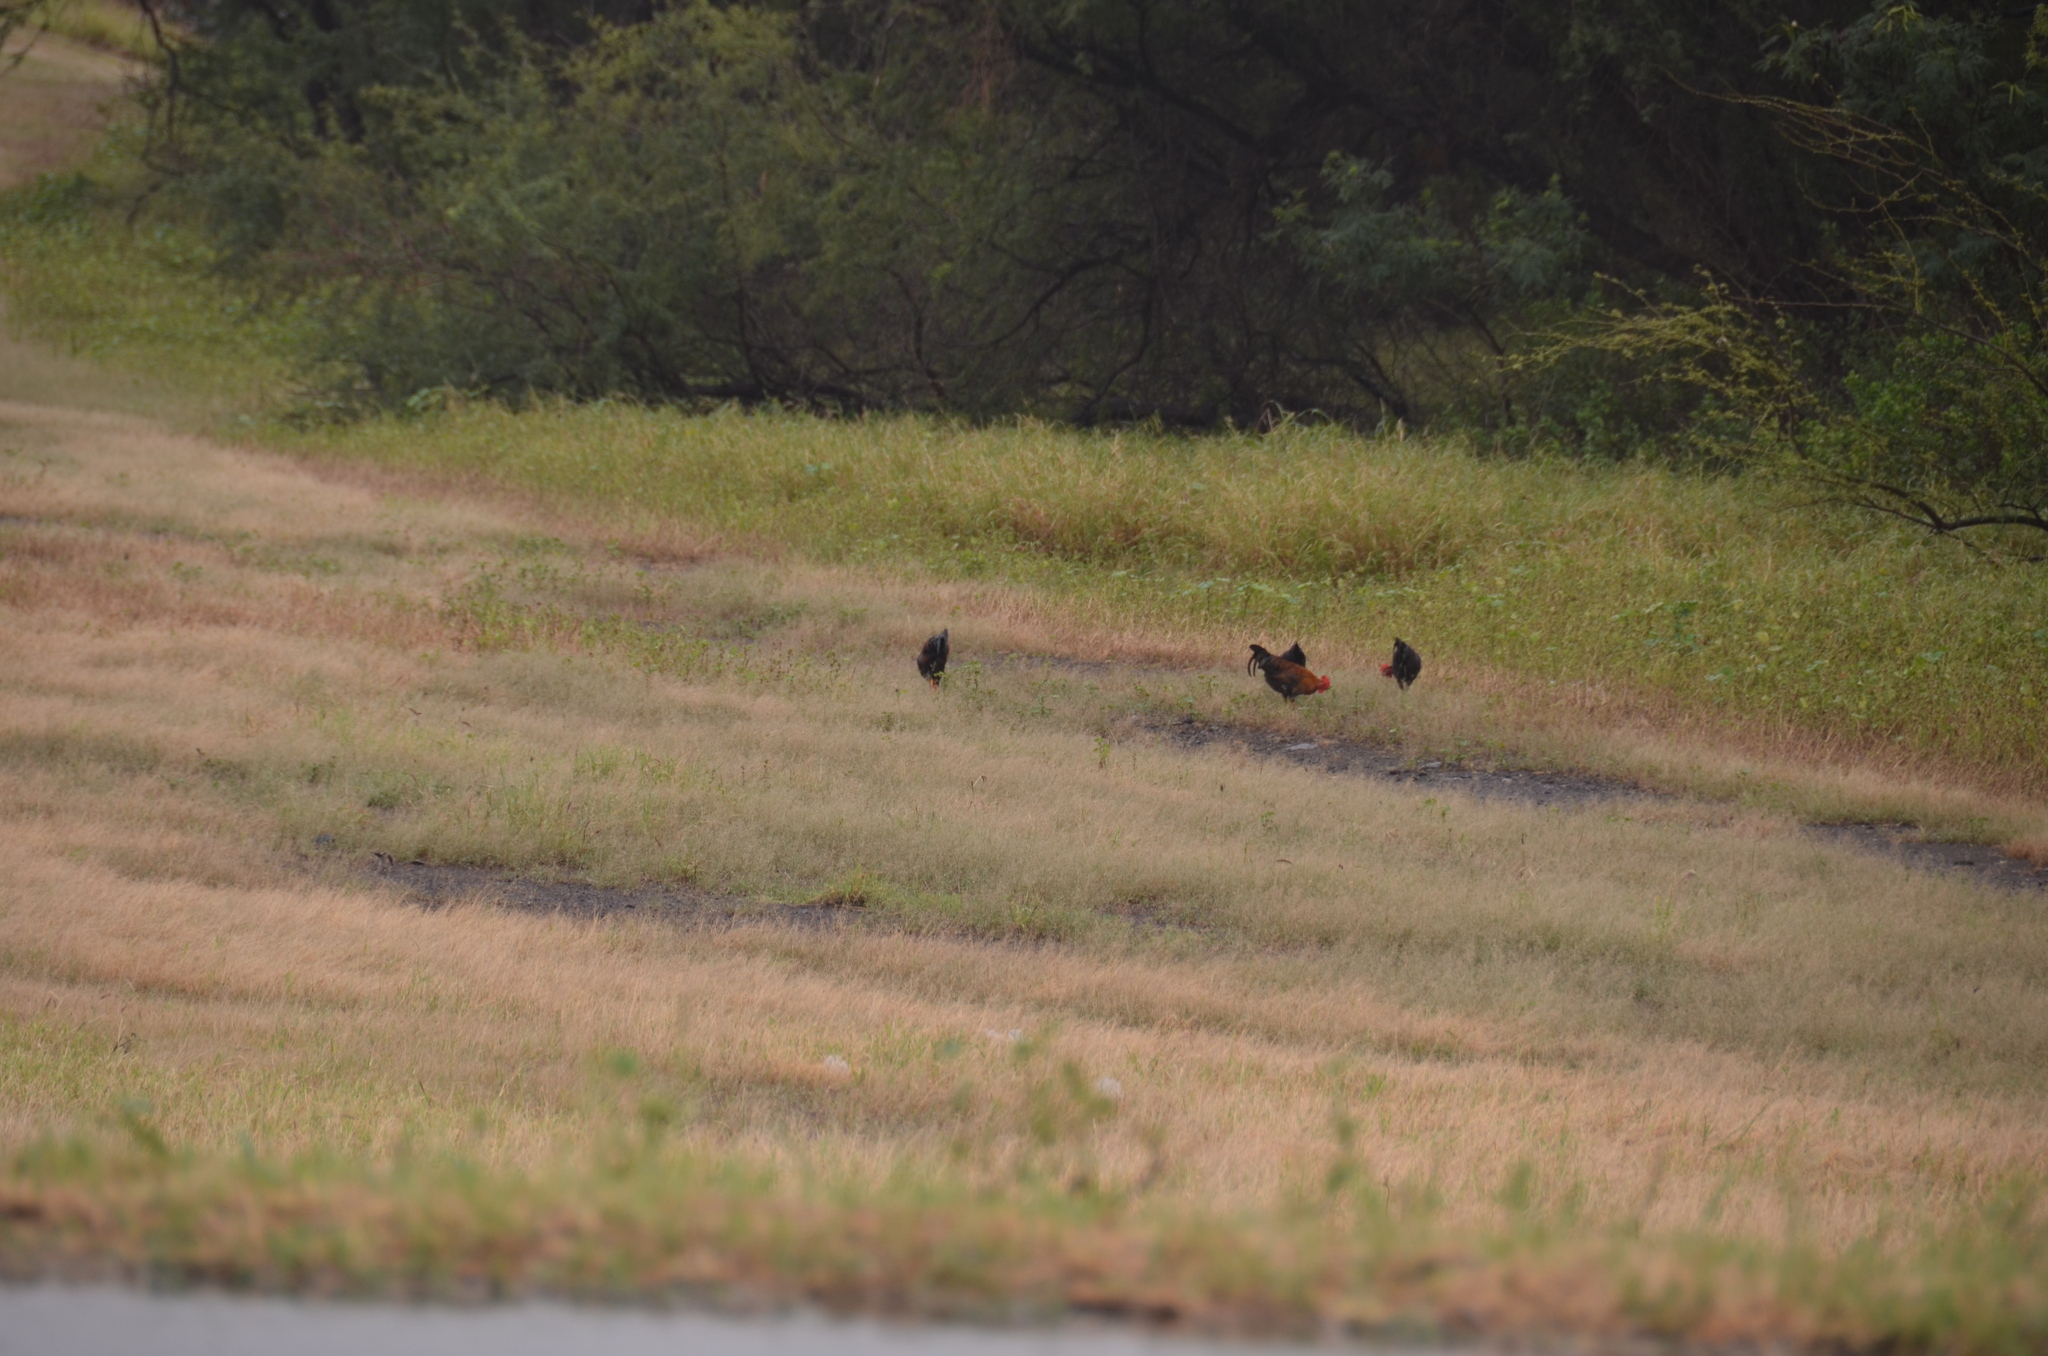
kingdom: Animalia
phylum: Chordata
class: Aves
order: Galliformes
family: Phasianidae
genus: Gallus
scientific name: Gallus gallus
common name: Red junglefowl
